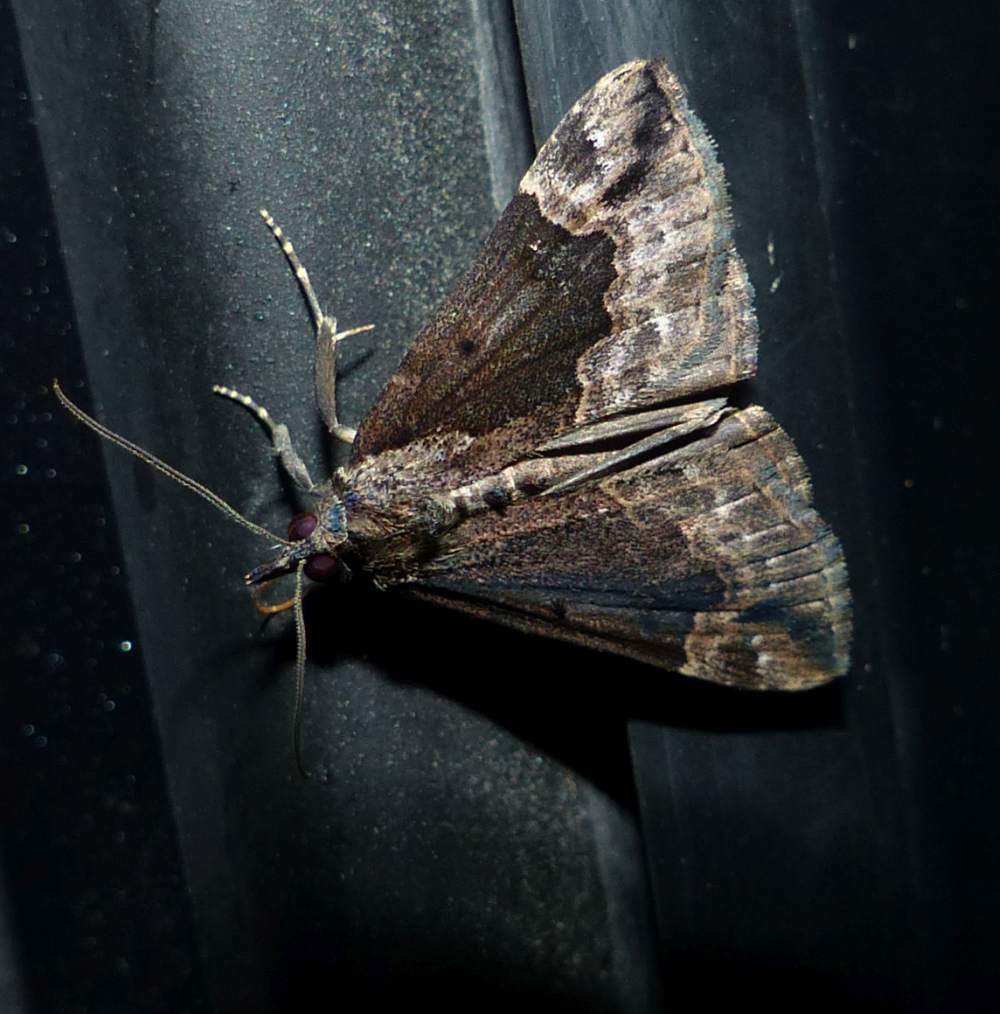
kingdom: Animalia
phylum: Arthropoda
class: Insecta
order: Lepidoptera
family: Erebidae
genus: Hypena
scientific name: Hypena baltimoralis
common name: Baltimore snout
